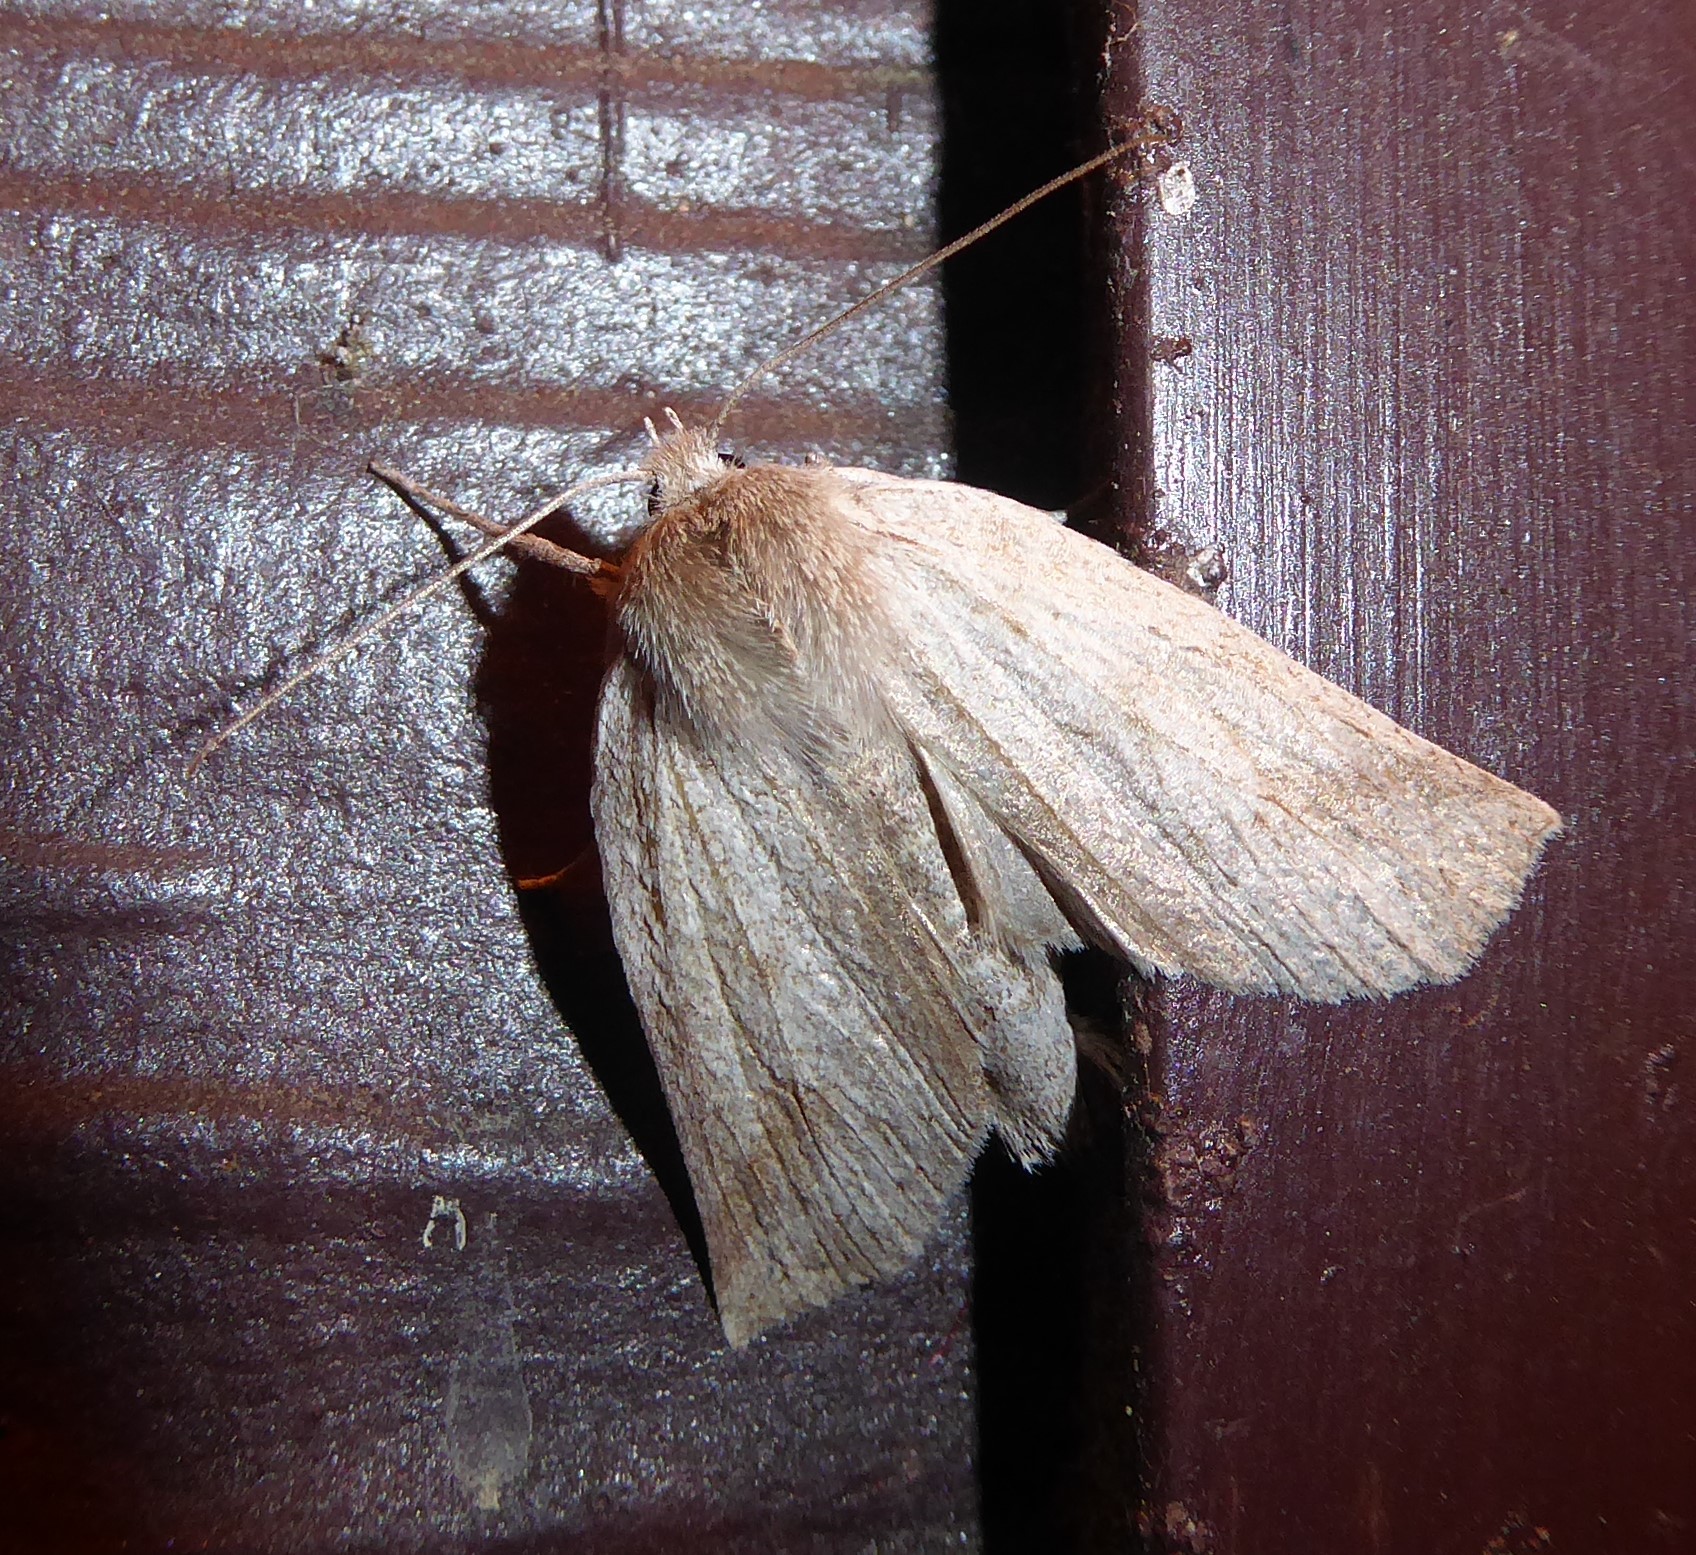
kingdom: Animalia
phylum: Arthropoda
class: Insecta
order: Lepidoptera
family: Geometridae
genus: Declana
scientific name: Declana leptomera
